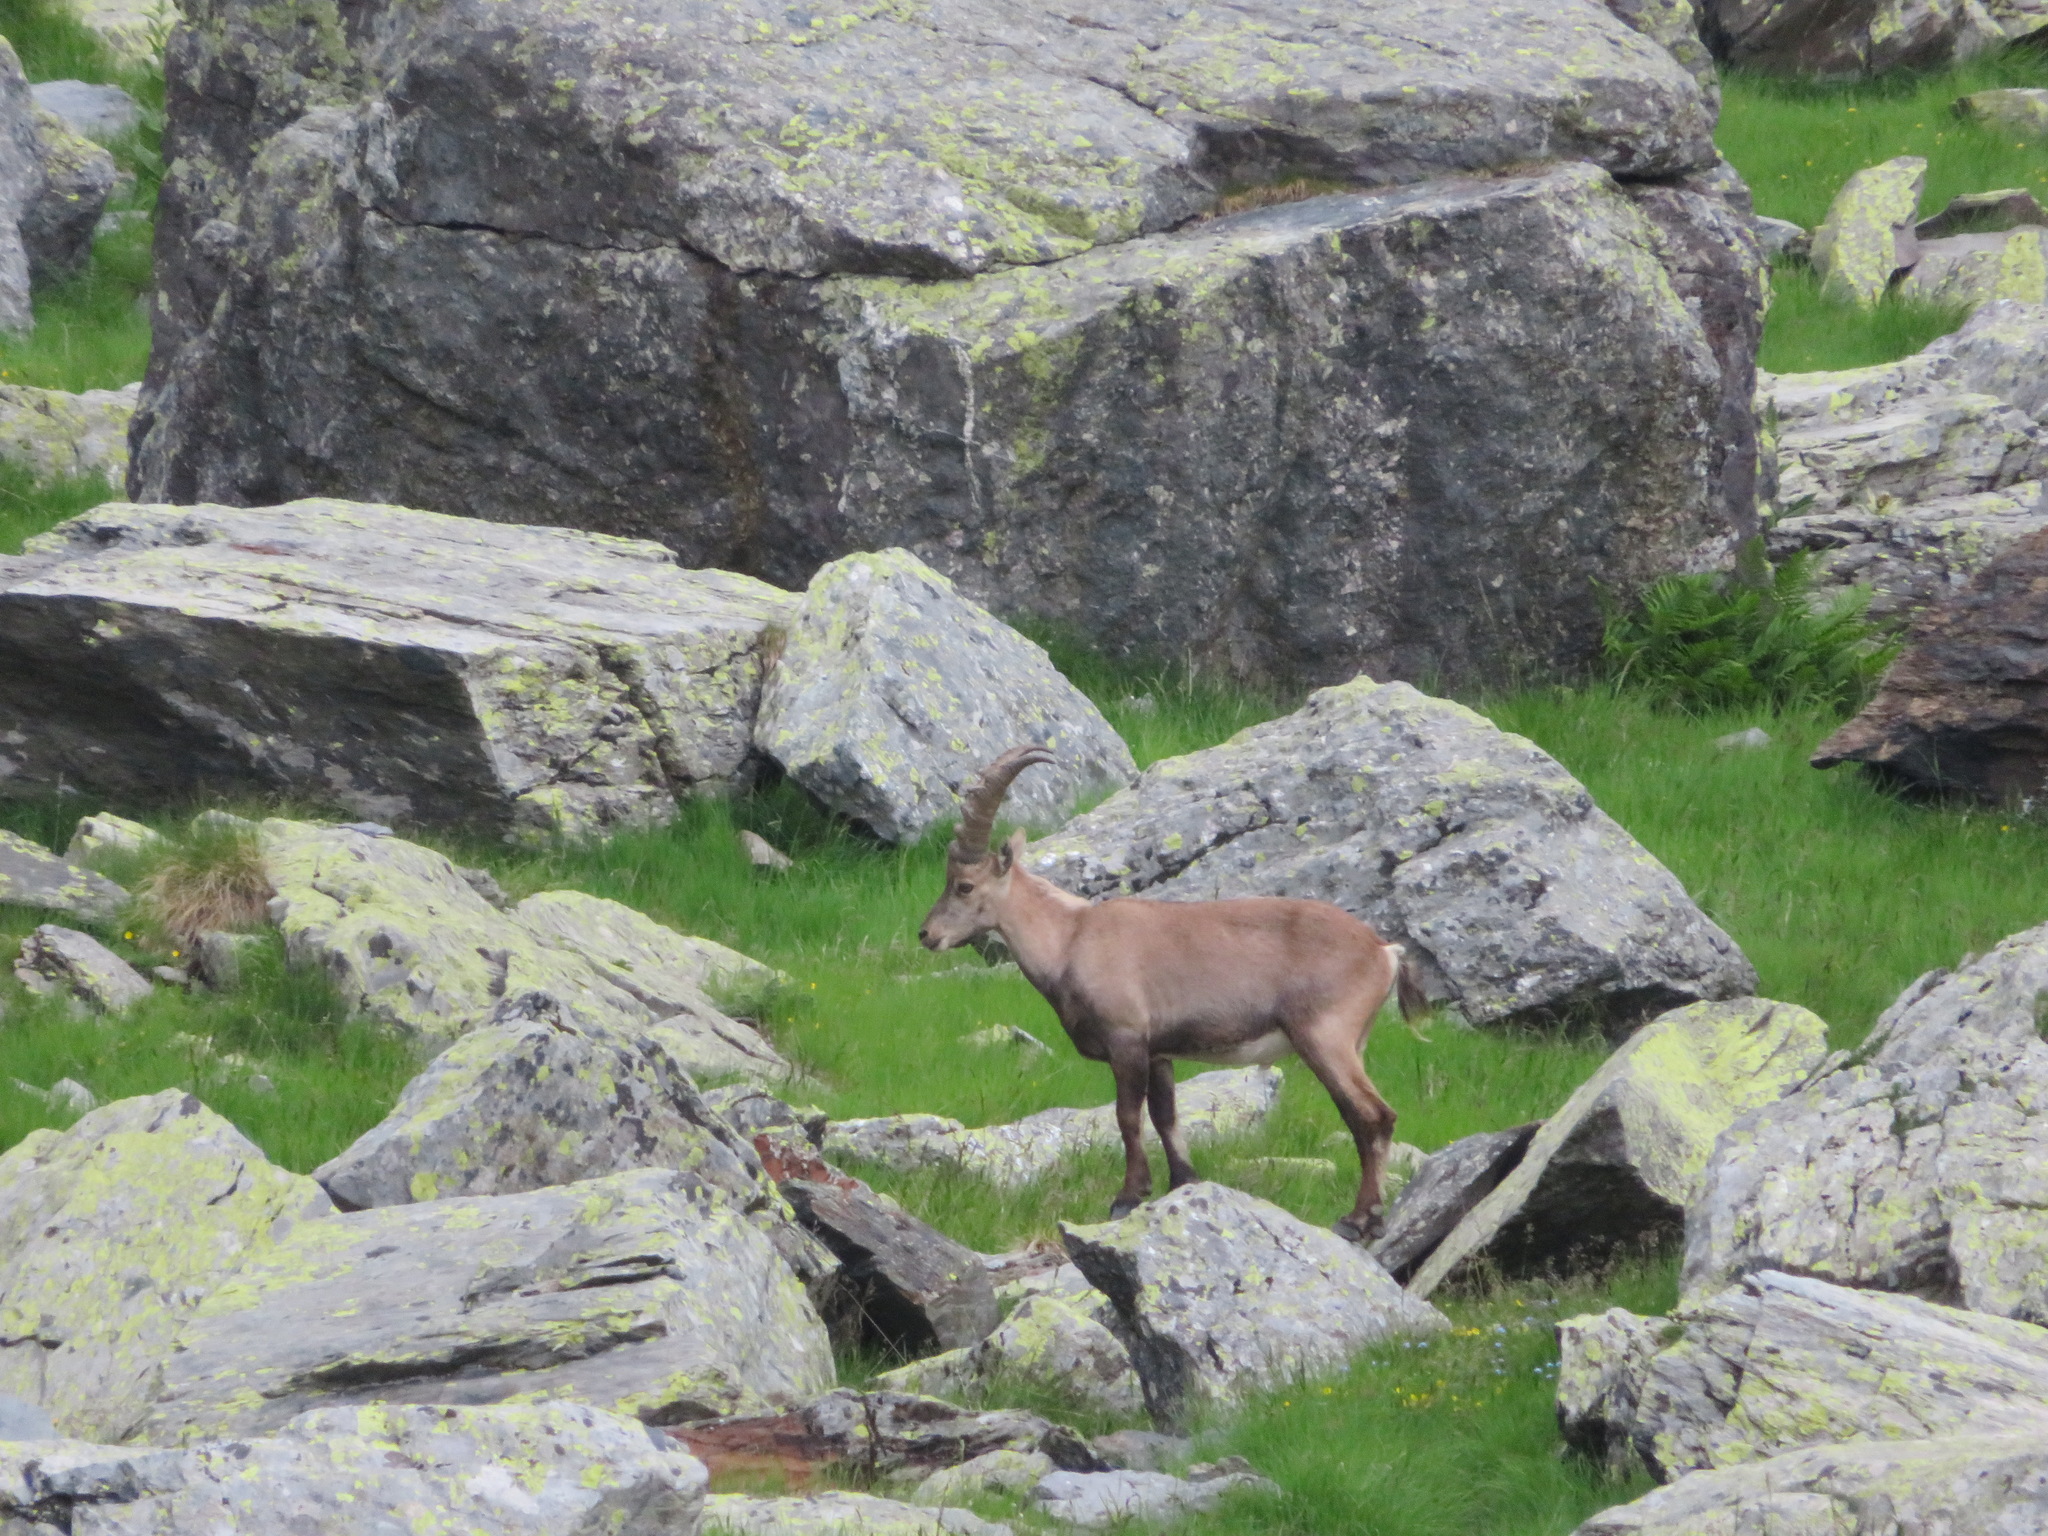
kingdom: Animalia
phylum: Chordata
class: Mammalia
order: Artiodactyla
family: Bovidae
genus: Capra
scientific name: Capra ibex
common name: Alpine ibex
